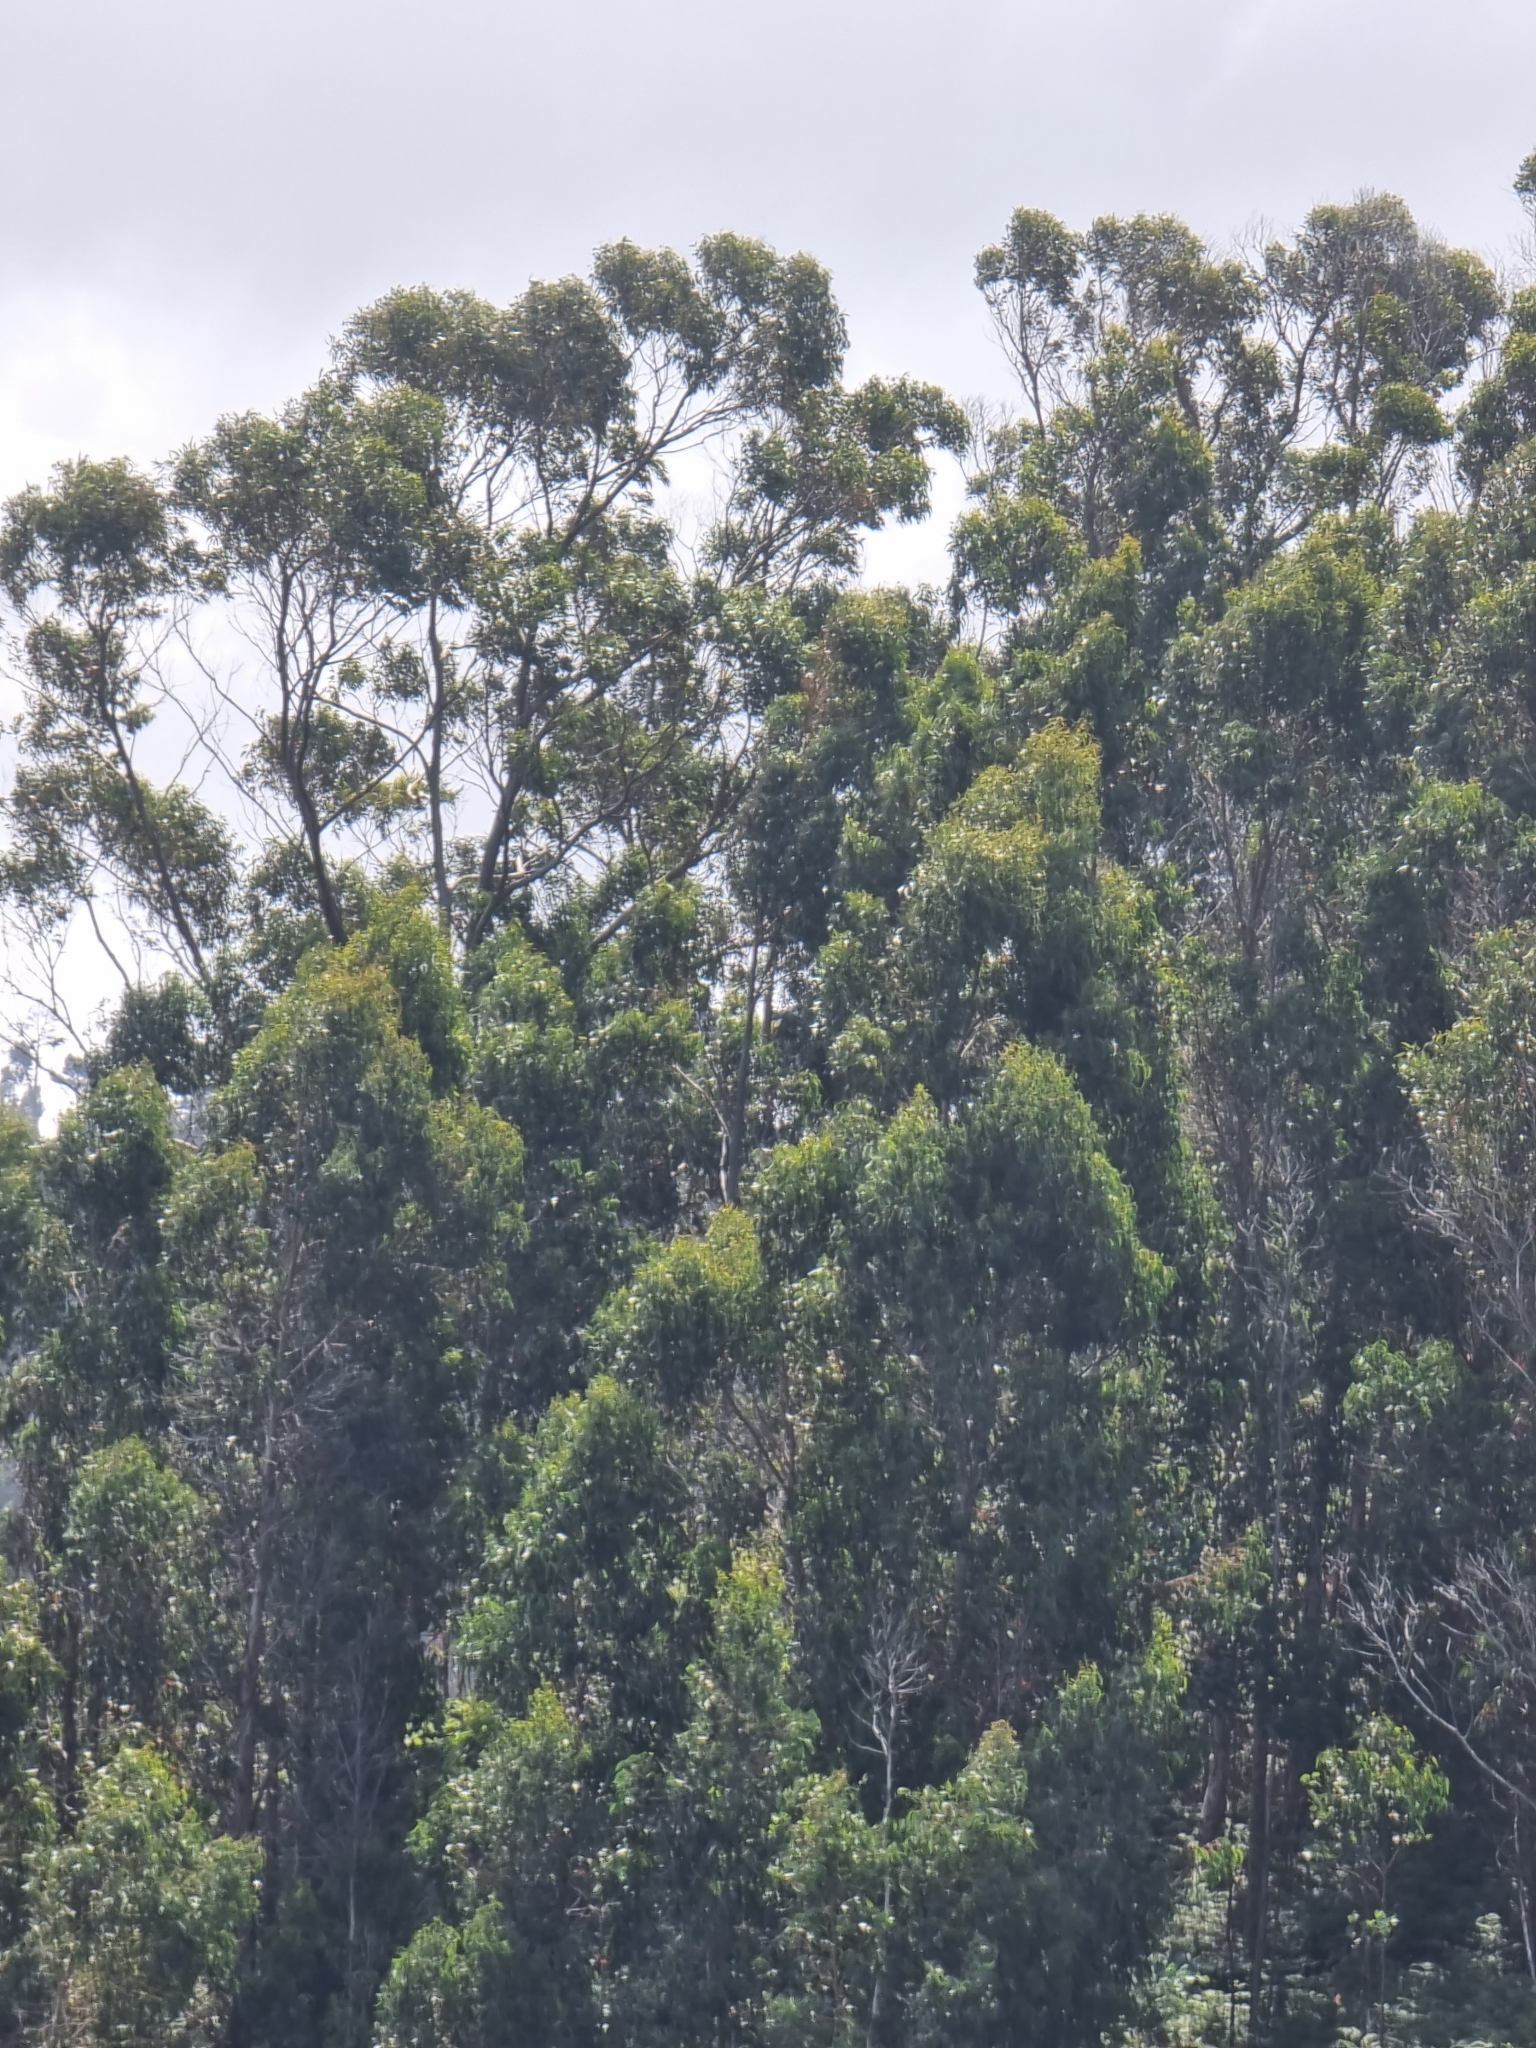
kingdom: Plantae
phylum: Tracheophyta
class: Magnoliopsida
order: Myrtales
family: Myrtaceae
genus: Eucalyptus
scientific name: Eucalyptus globulus
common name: Southern blue-gum
